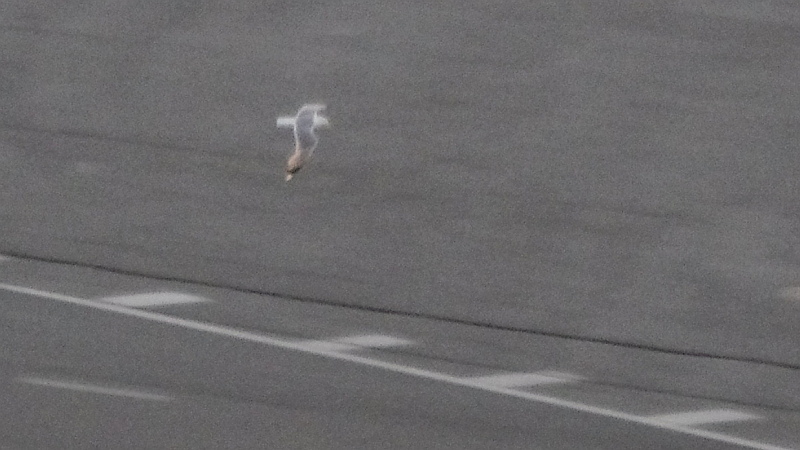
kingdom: Animalia
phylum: Chordata
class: Aves
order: Charadriiformes
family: Laridae
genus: Larus
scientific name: Larus canus
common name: Mew gull
